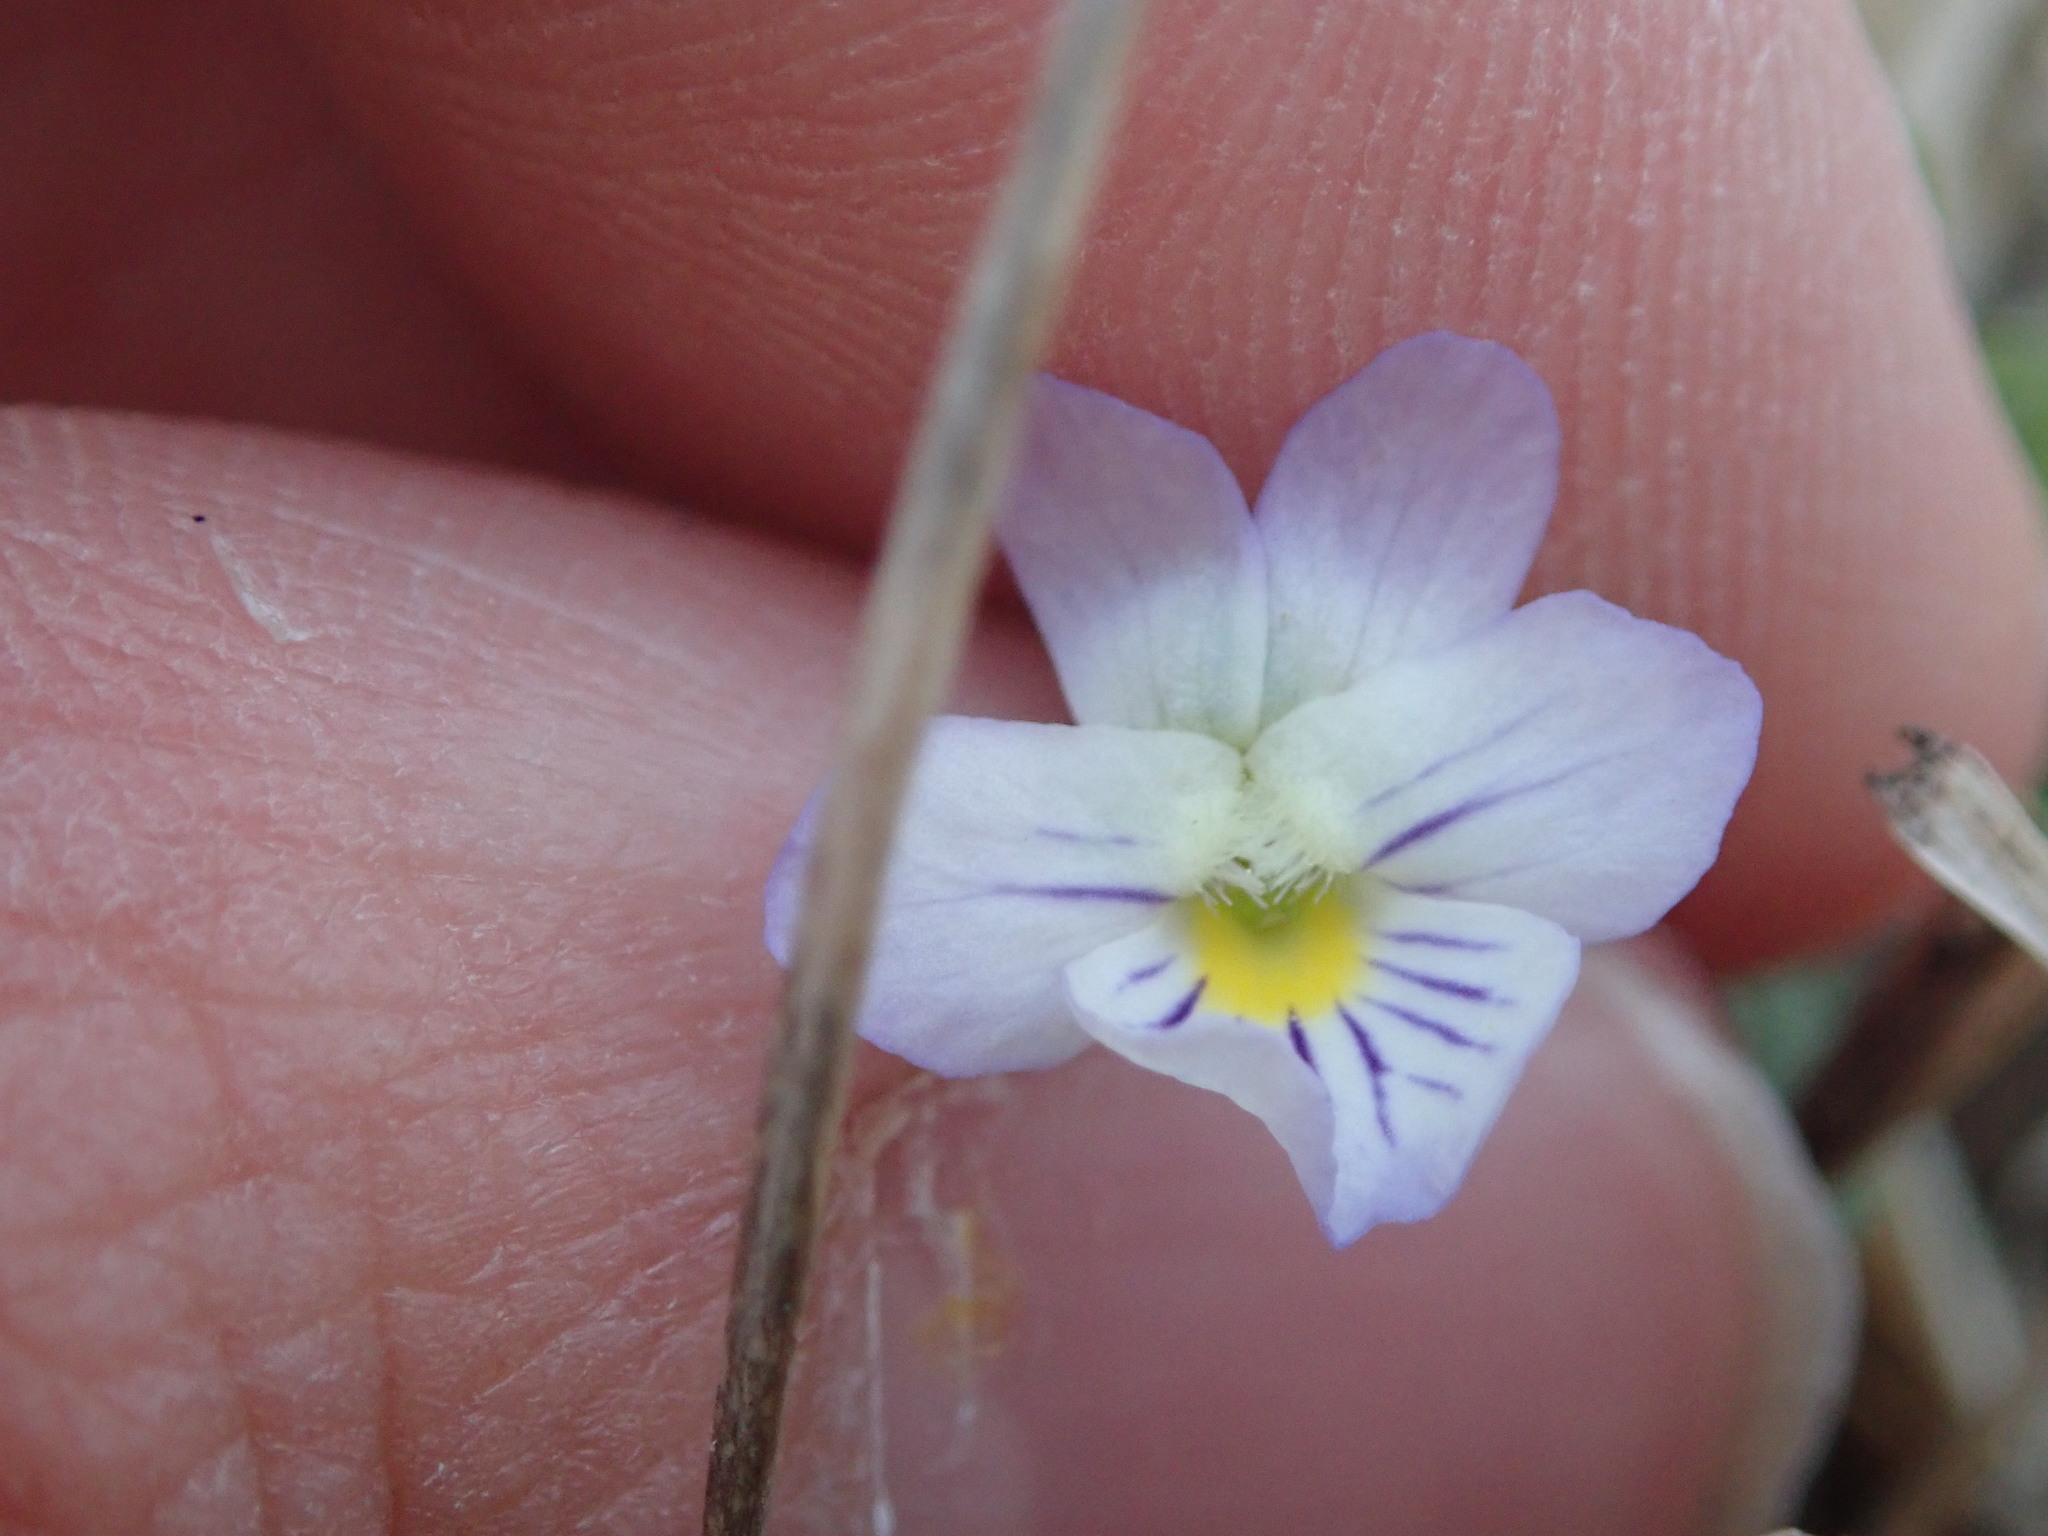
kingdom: Plantae
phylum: Tracheophyta
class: Magnoliopsida
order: Malpighiales
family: Violaceae
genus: Viola
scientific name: Viola rafinesquei
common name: American field pansy
